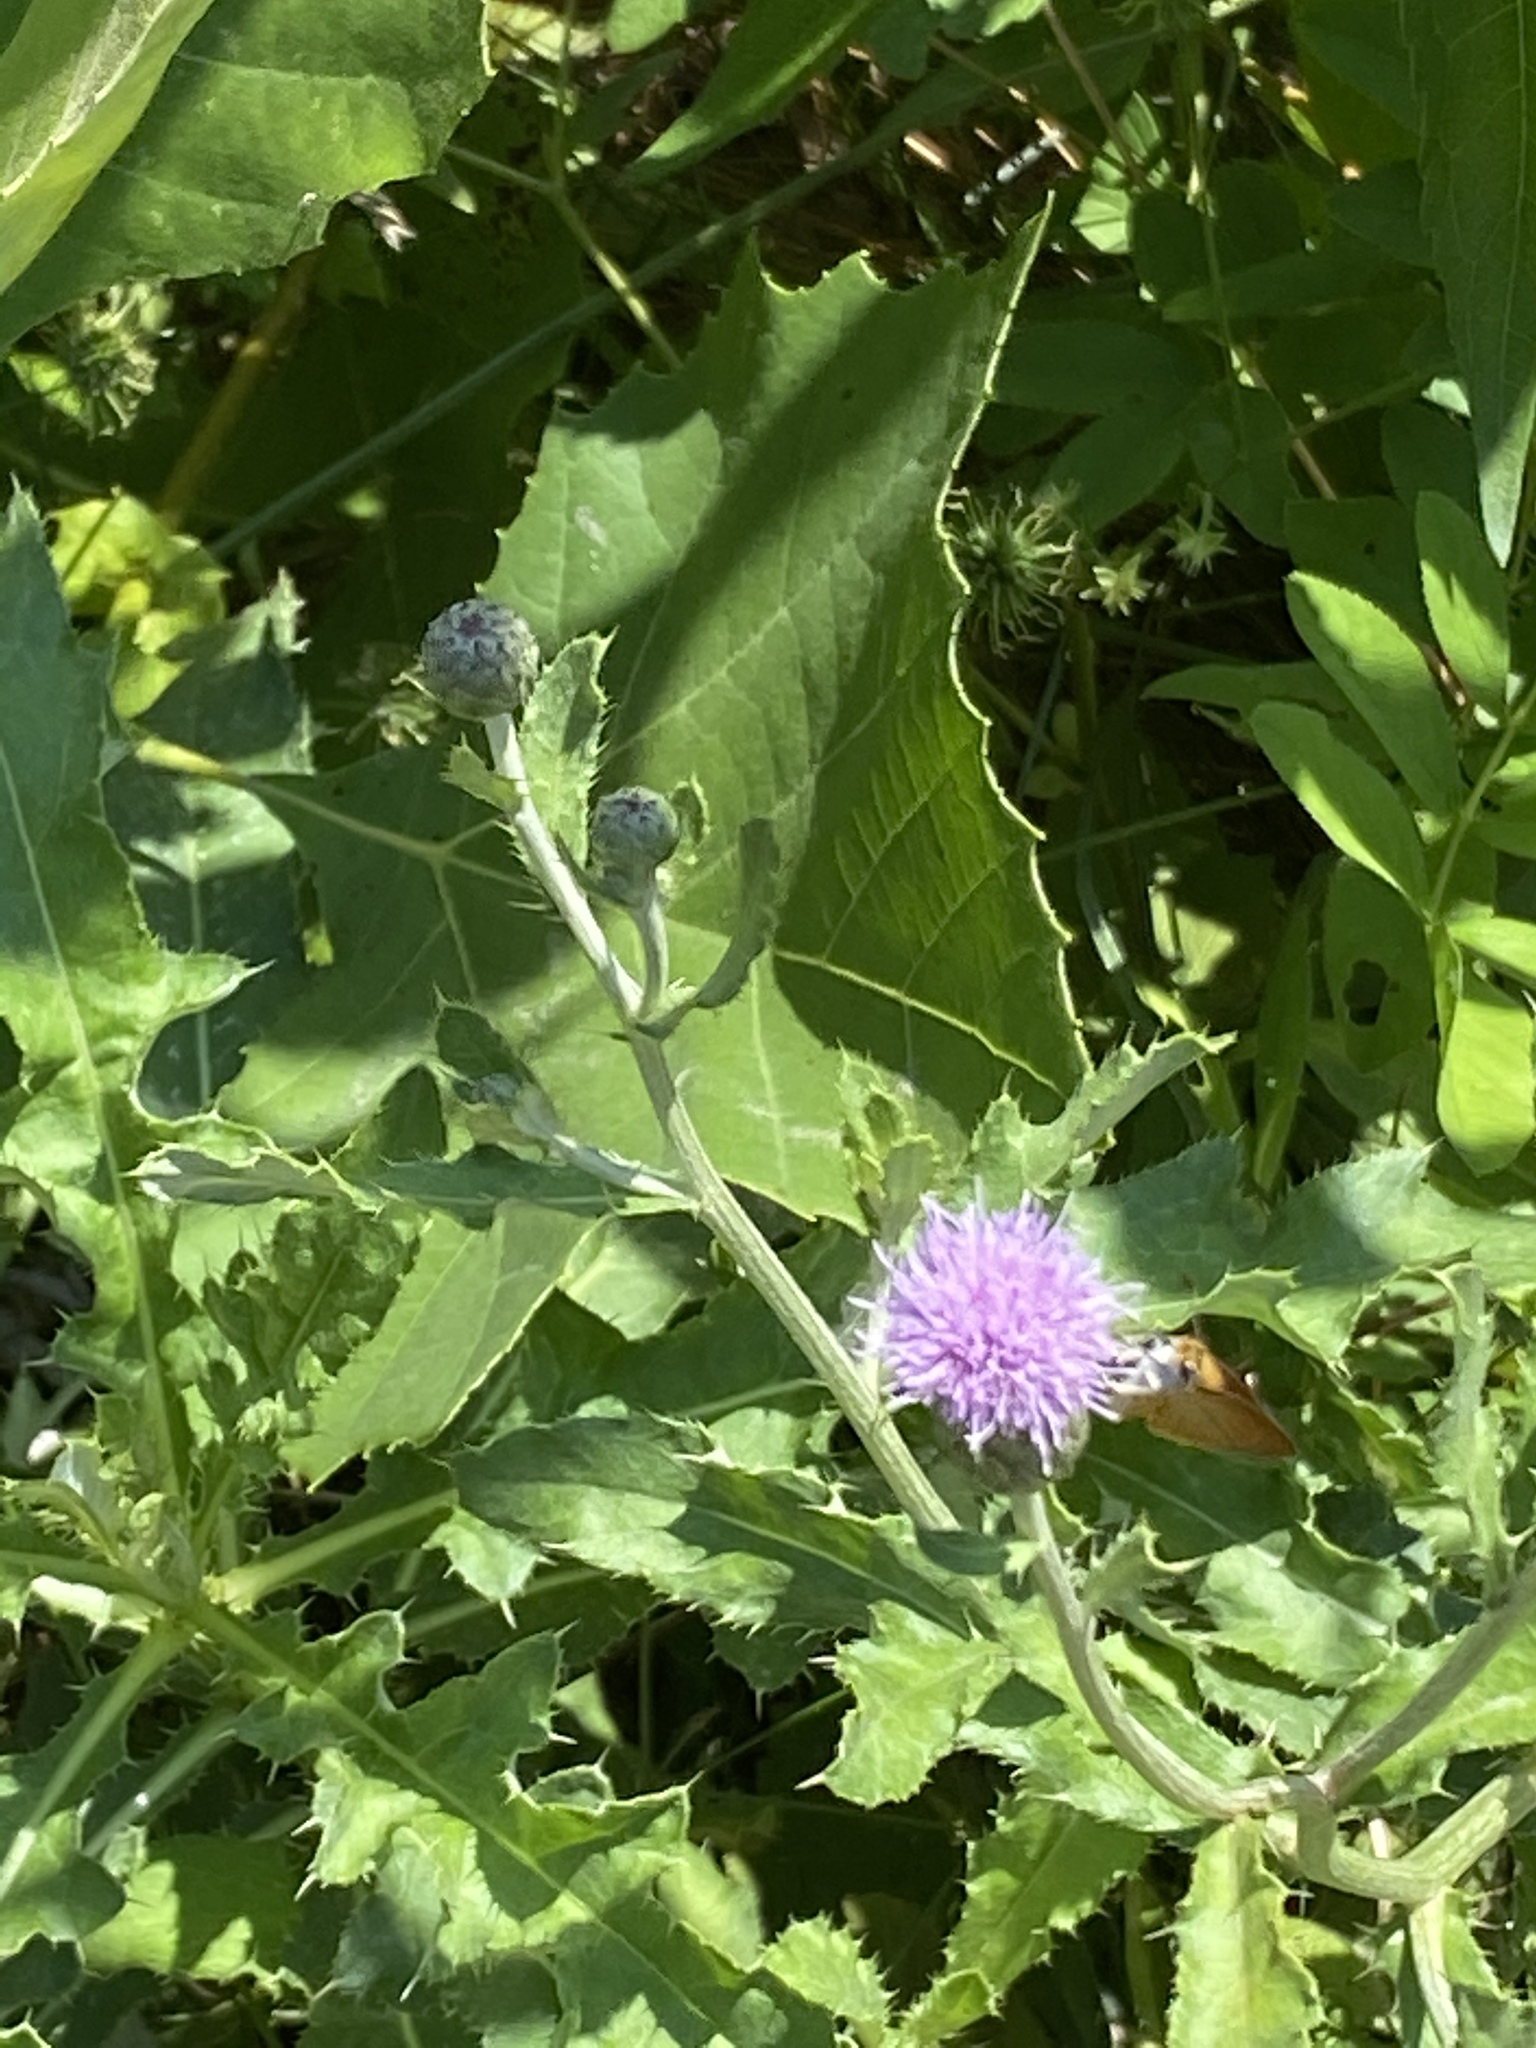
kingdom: Plantae
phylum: Tracheophyta
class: Magnoliopsida
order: Asterales
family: Asteraceae
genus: Cirsium
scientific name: Cirsium arvense
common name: Creeping thistle
